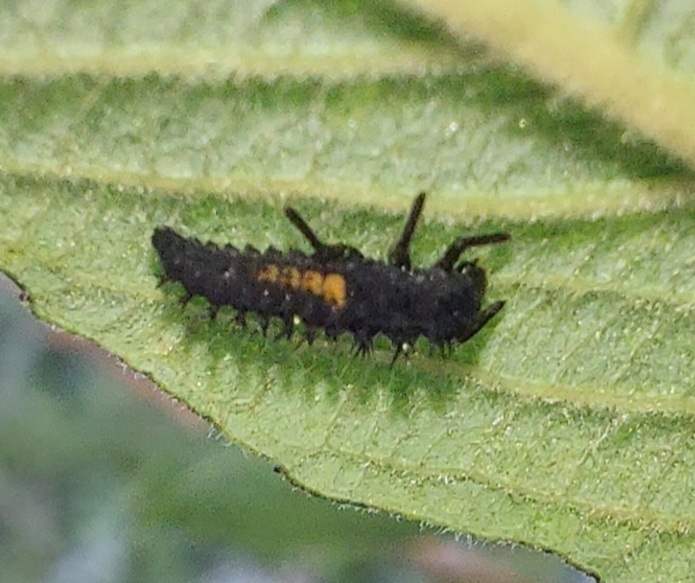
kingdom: Animalia
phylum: Arthropoda
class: Insecta
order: Coleoptera
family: Coccinellidae
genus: Harmonia
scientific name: Harmonia axyridis
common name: Harlequin ladybird
